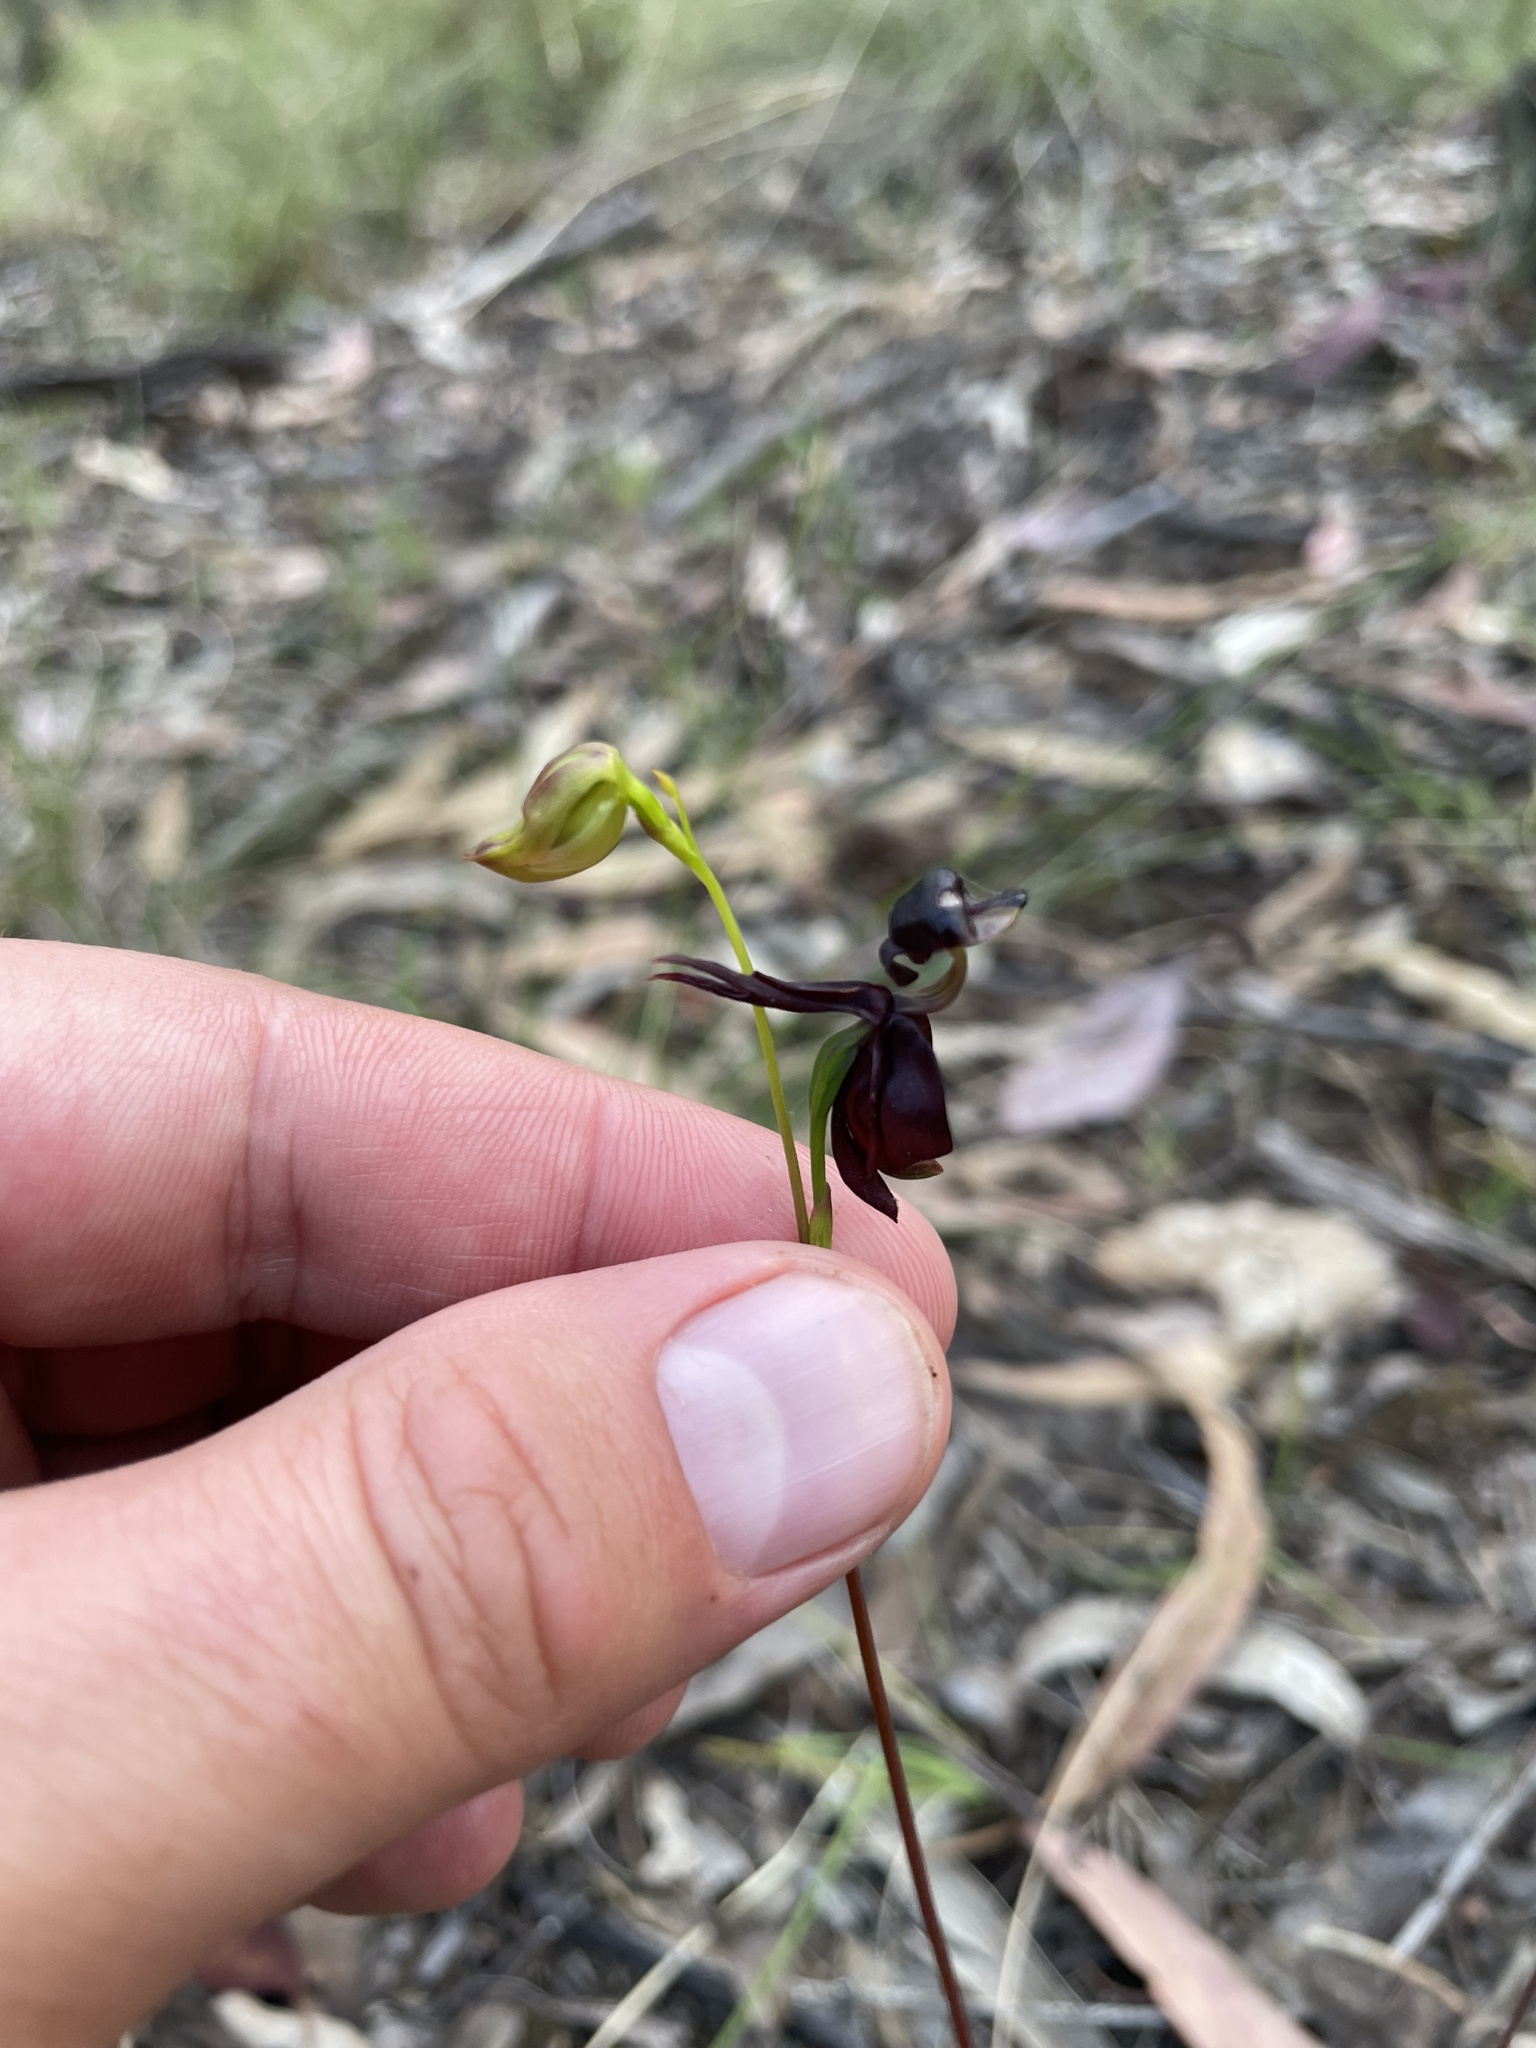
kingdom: Plantae
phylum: Tracheophyta
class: Liliopsida
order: Asparagales
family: Orchidaceae
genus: Caleana
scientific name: Caleana major
